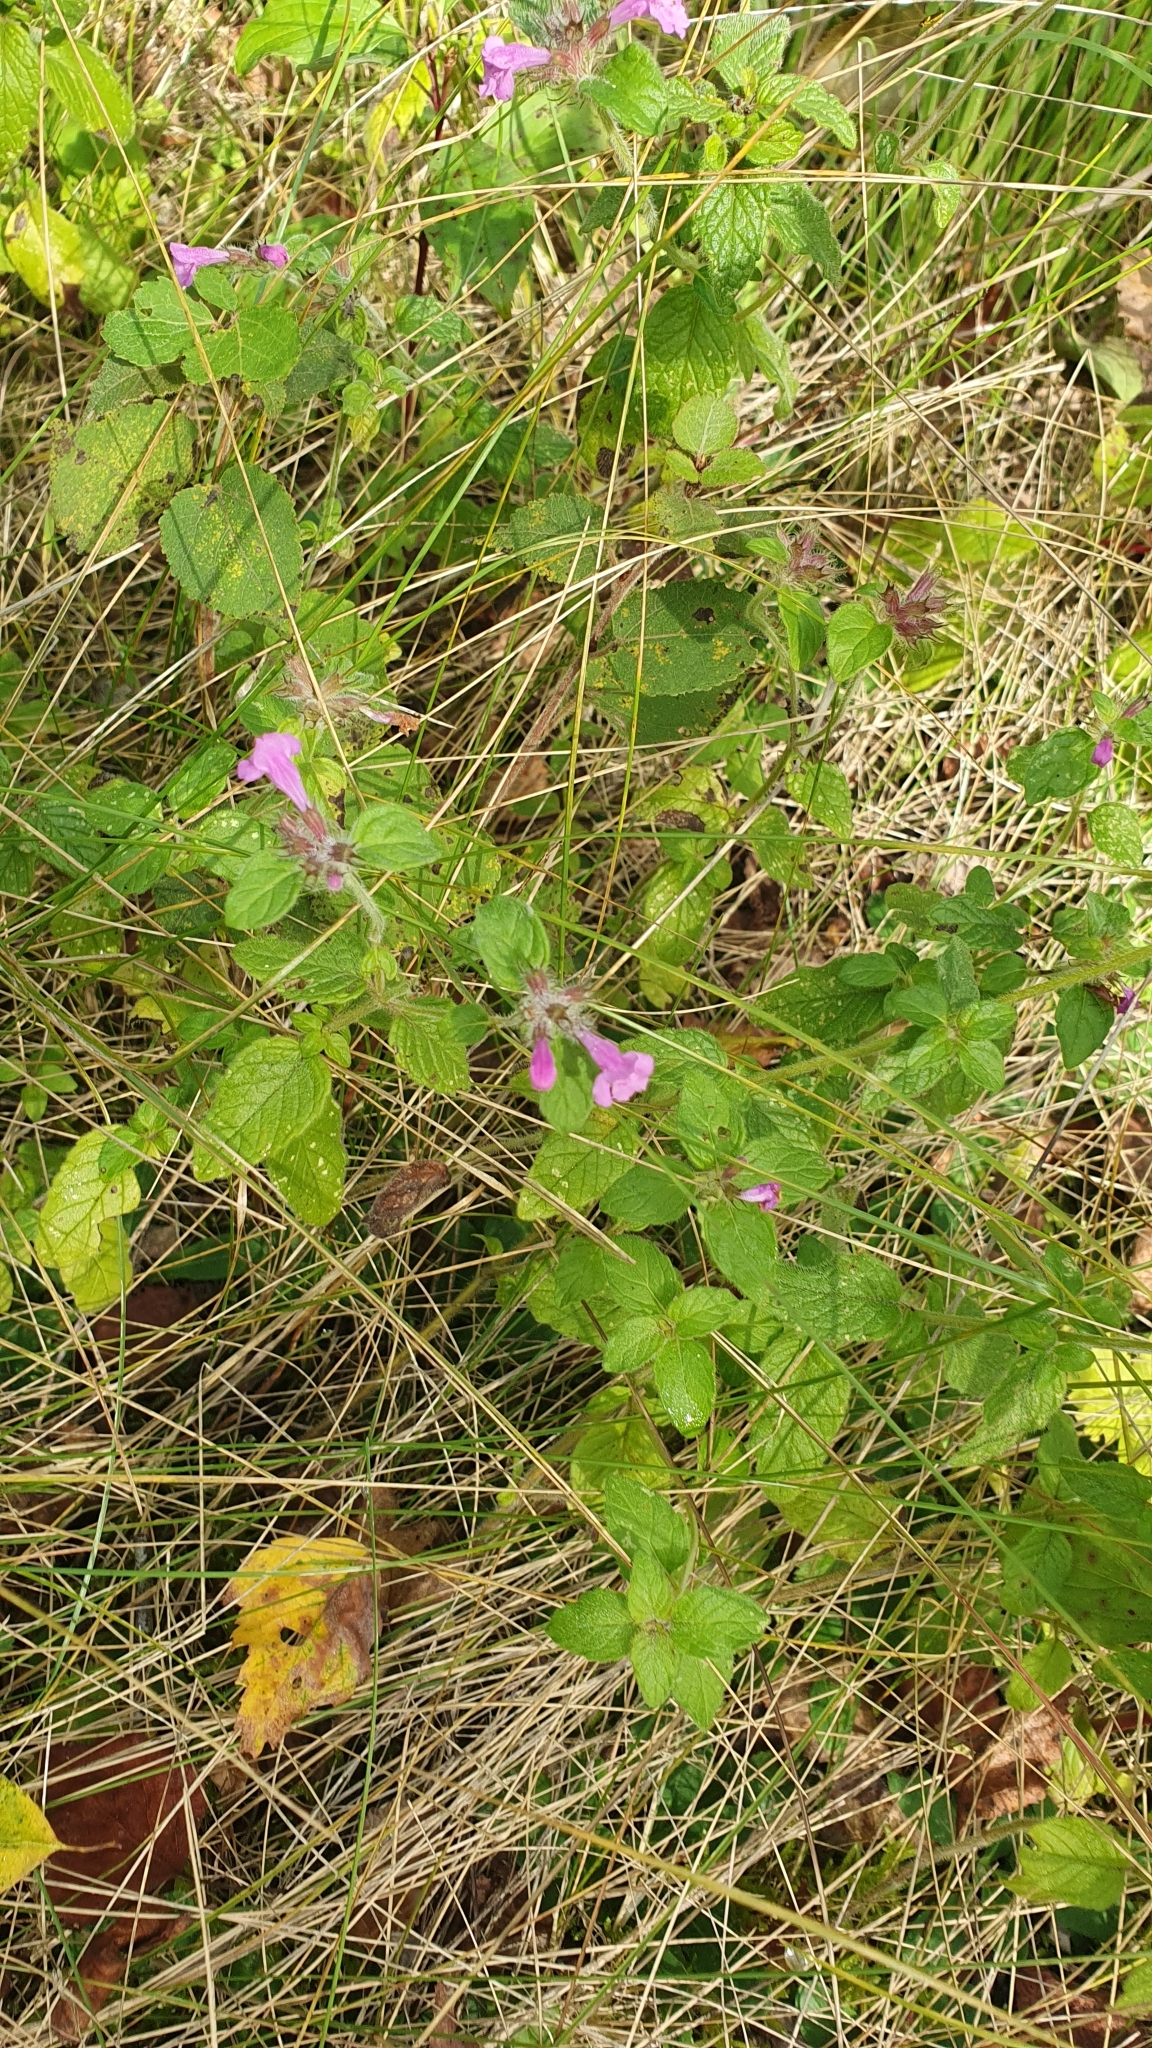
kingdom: Plantae
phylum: Tracheophyta
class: Magnoliopsida
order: Lamiales
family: Lamiaceae
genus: Clinopodium
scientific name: Clinopodium vulgare
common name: Wild basil
